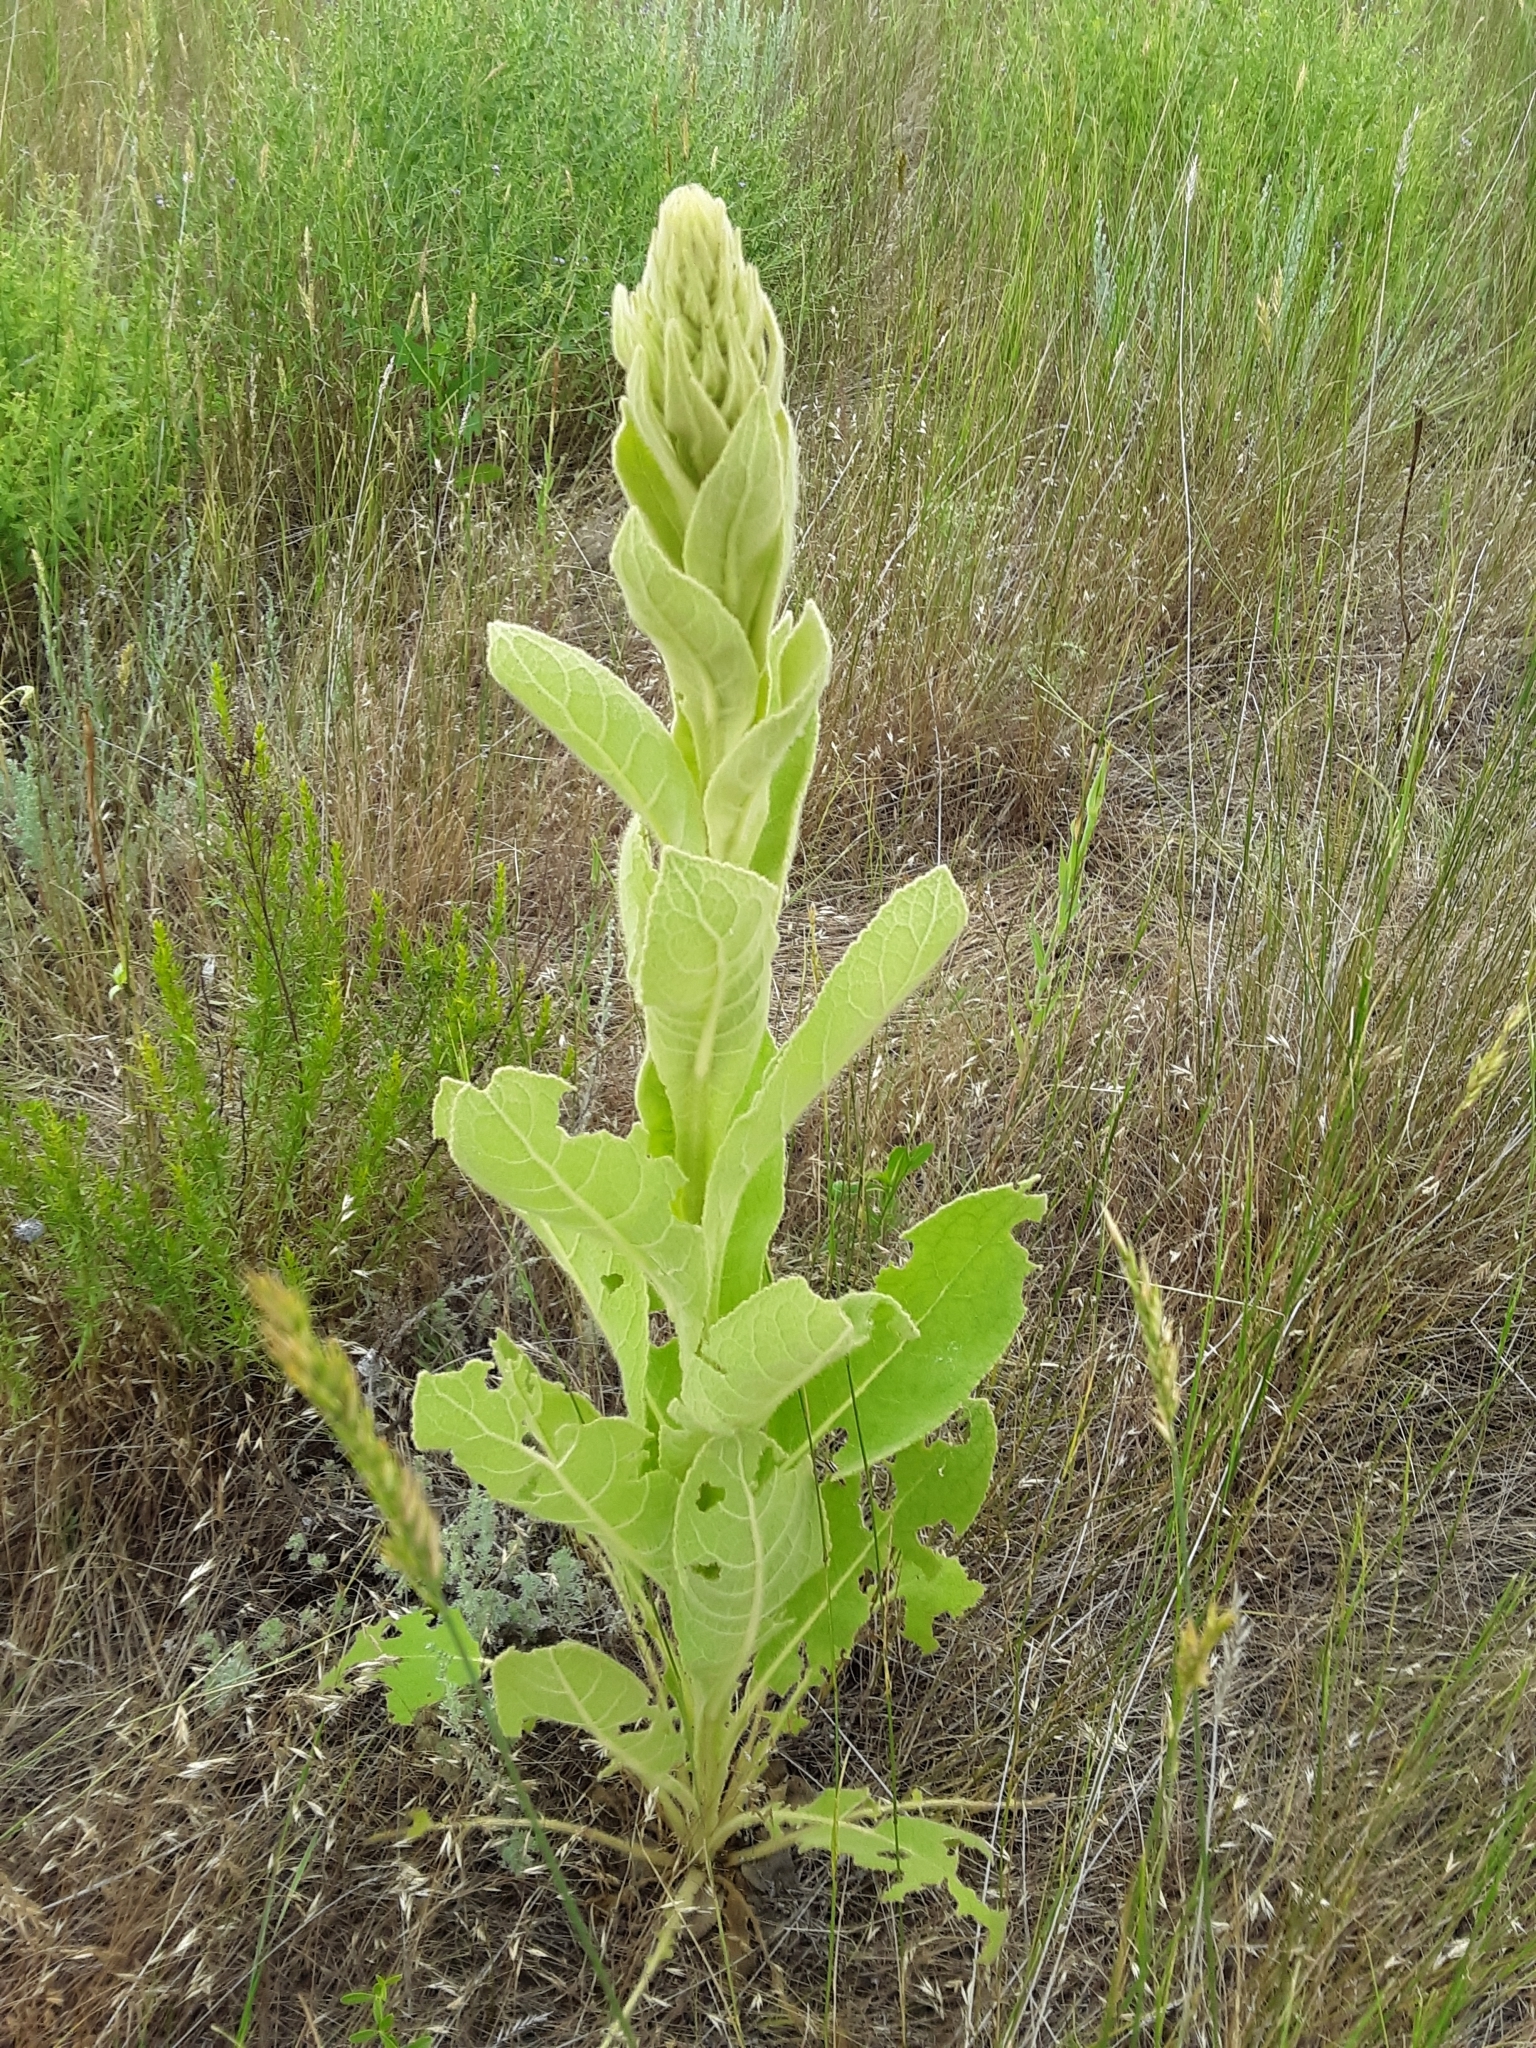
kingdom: Plantae
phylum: Tracheophyta
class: Magnoliopsida
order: Lamiales
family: Scrophulariaceae
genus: Verbascum
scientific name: Verbascum thapsus
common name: Common mullein
